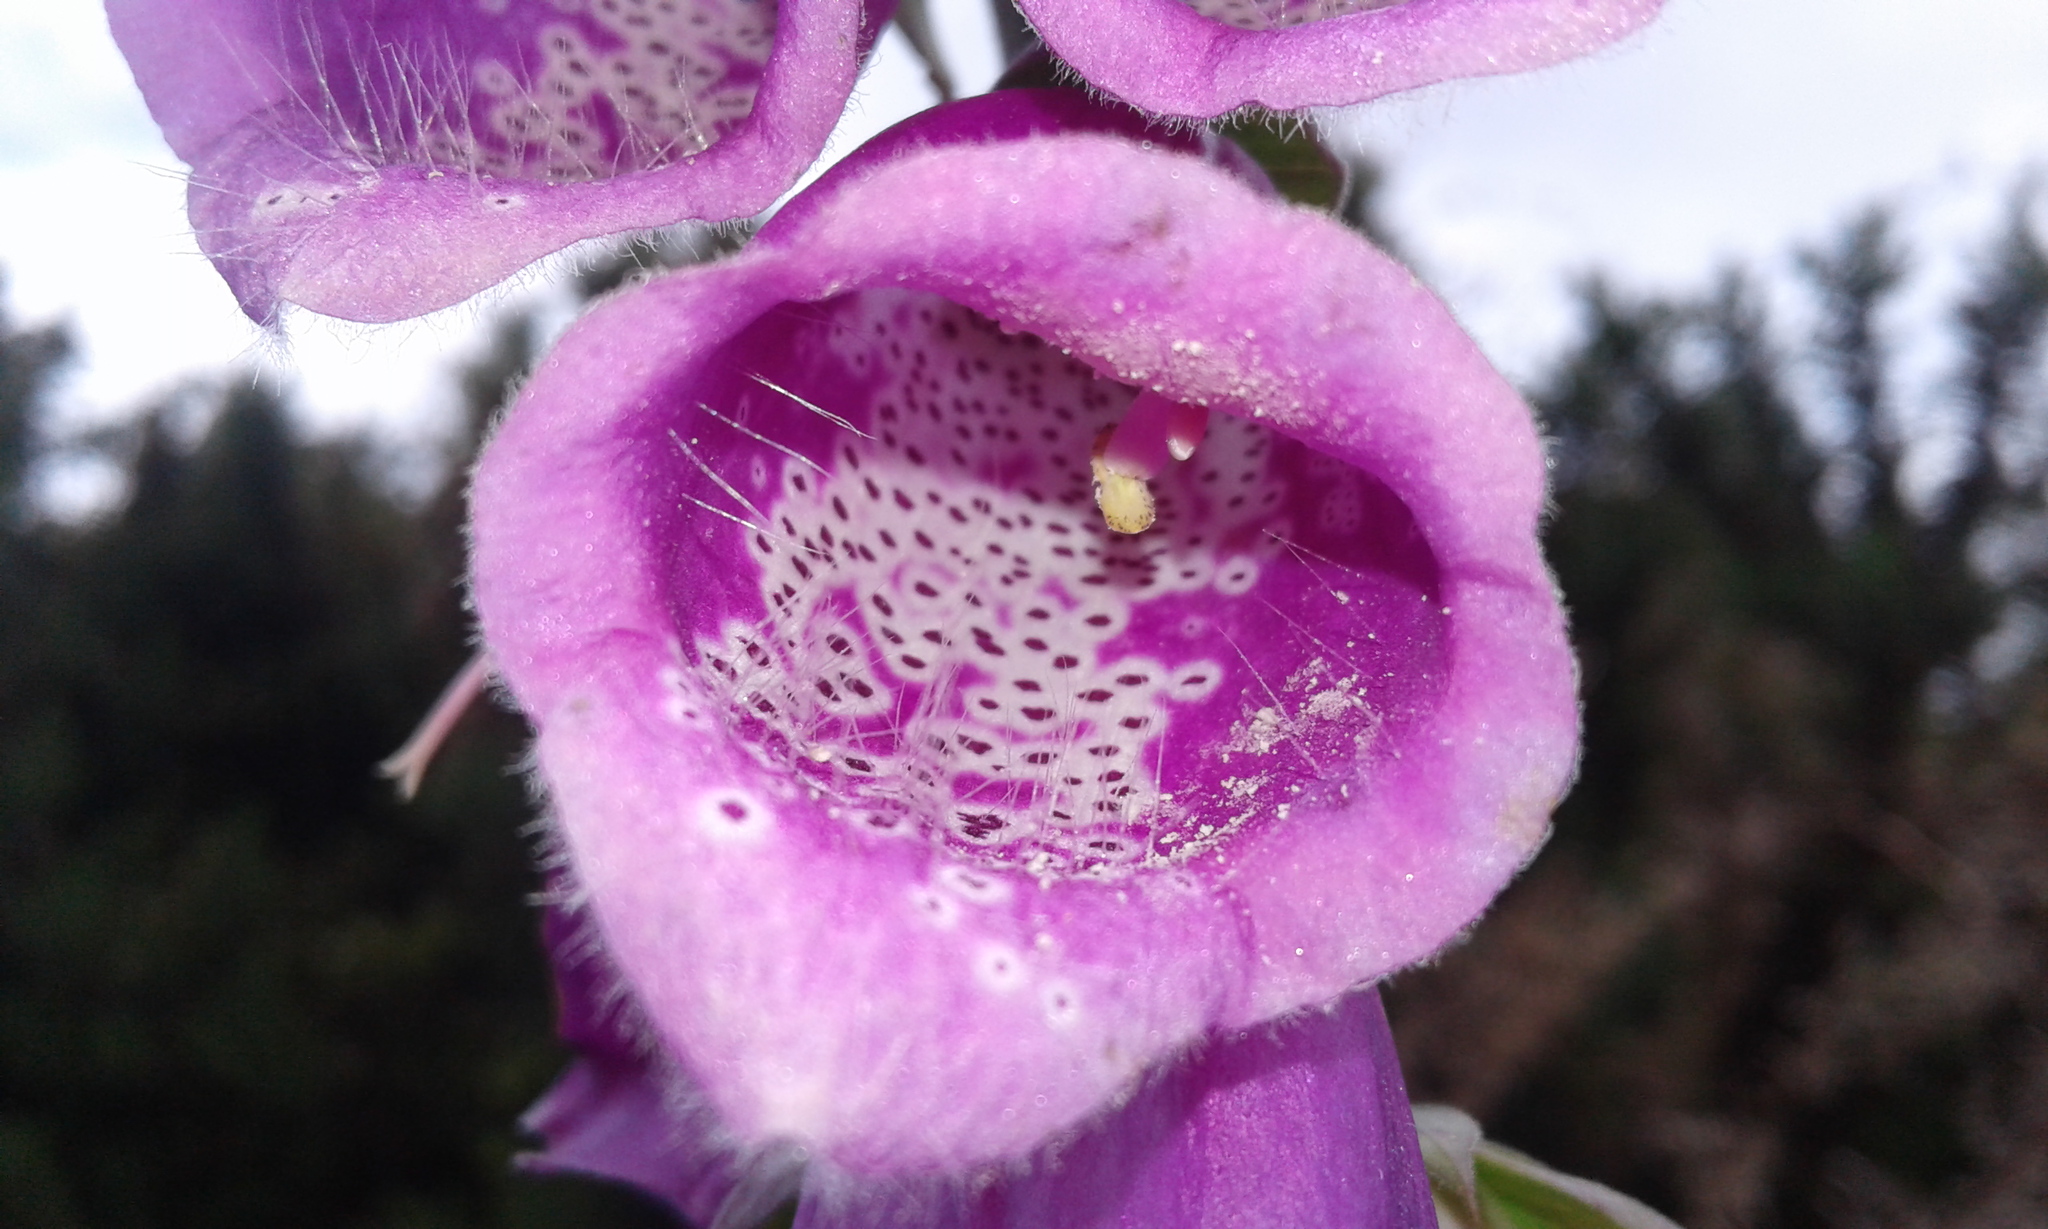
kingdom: Plantae
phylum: Tracheophyta
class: Magnoliopsida
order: Lamiales
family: Plantaginaceae
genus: Digitalis
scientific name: Digitalis purpurea
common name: Foxglove
